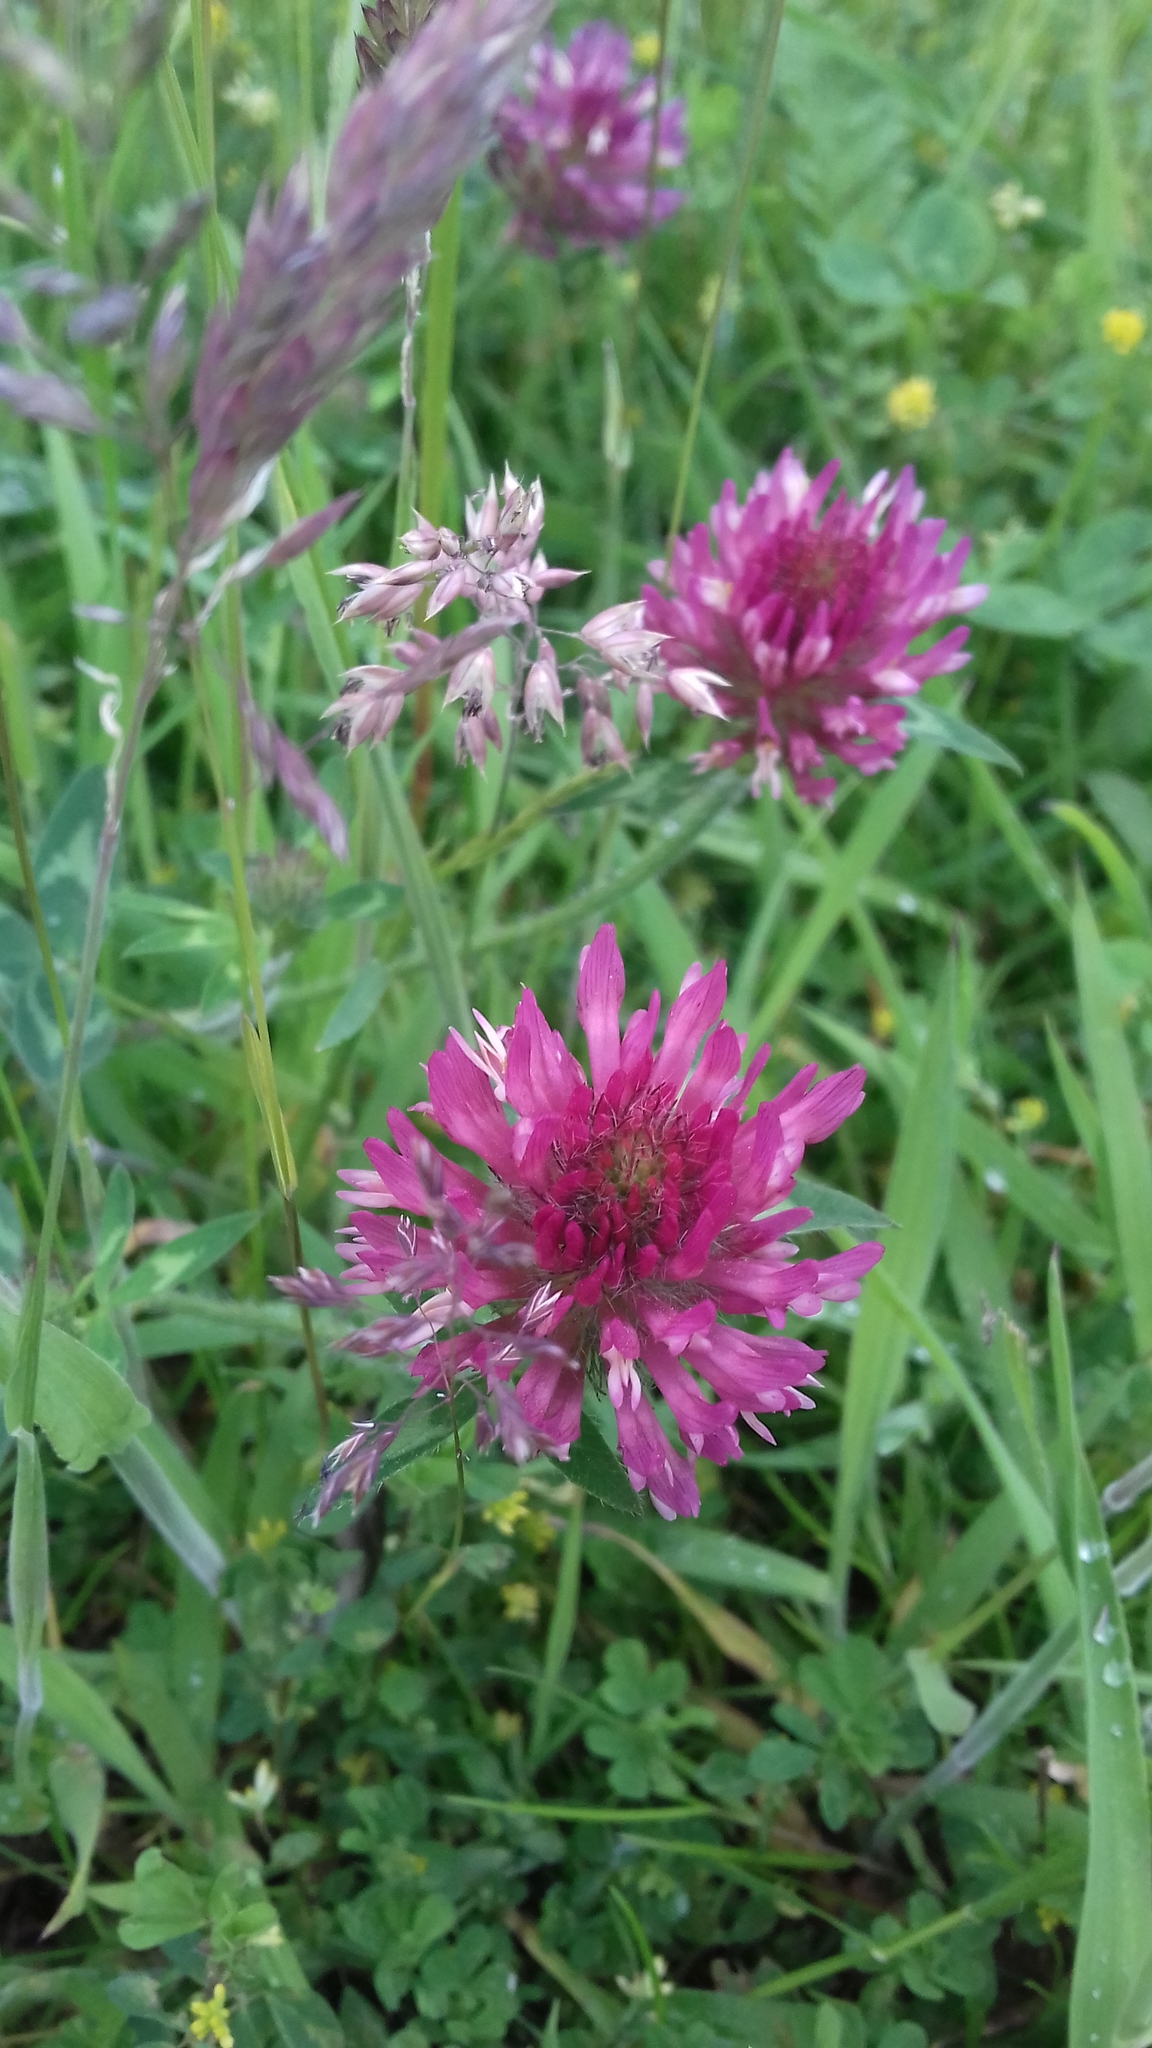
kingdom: Plantae
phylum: Tracheophyta
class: Magnoliopsida
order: Fabales
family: Fabaceae
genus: Trifolium
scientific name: Trifolium pratense
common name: Red clover
